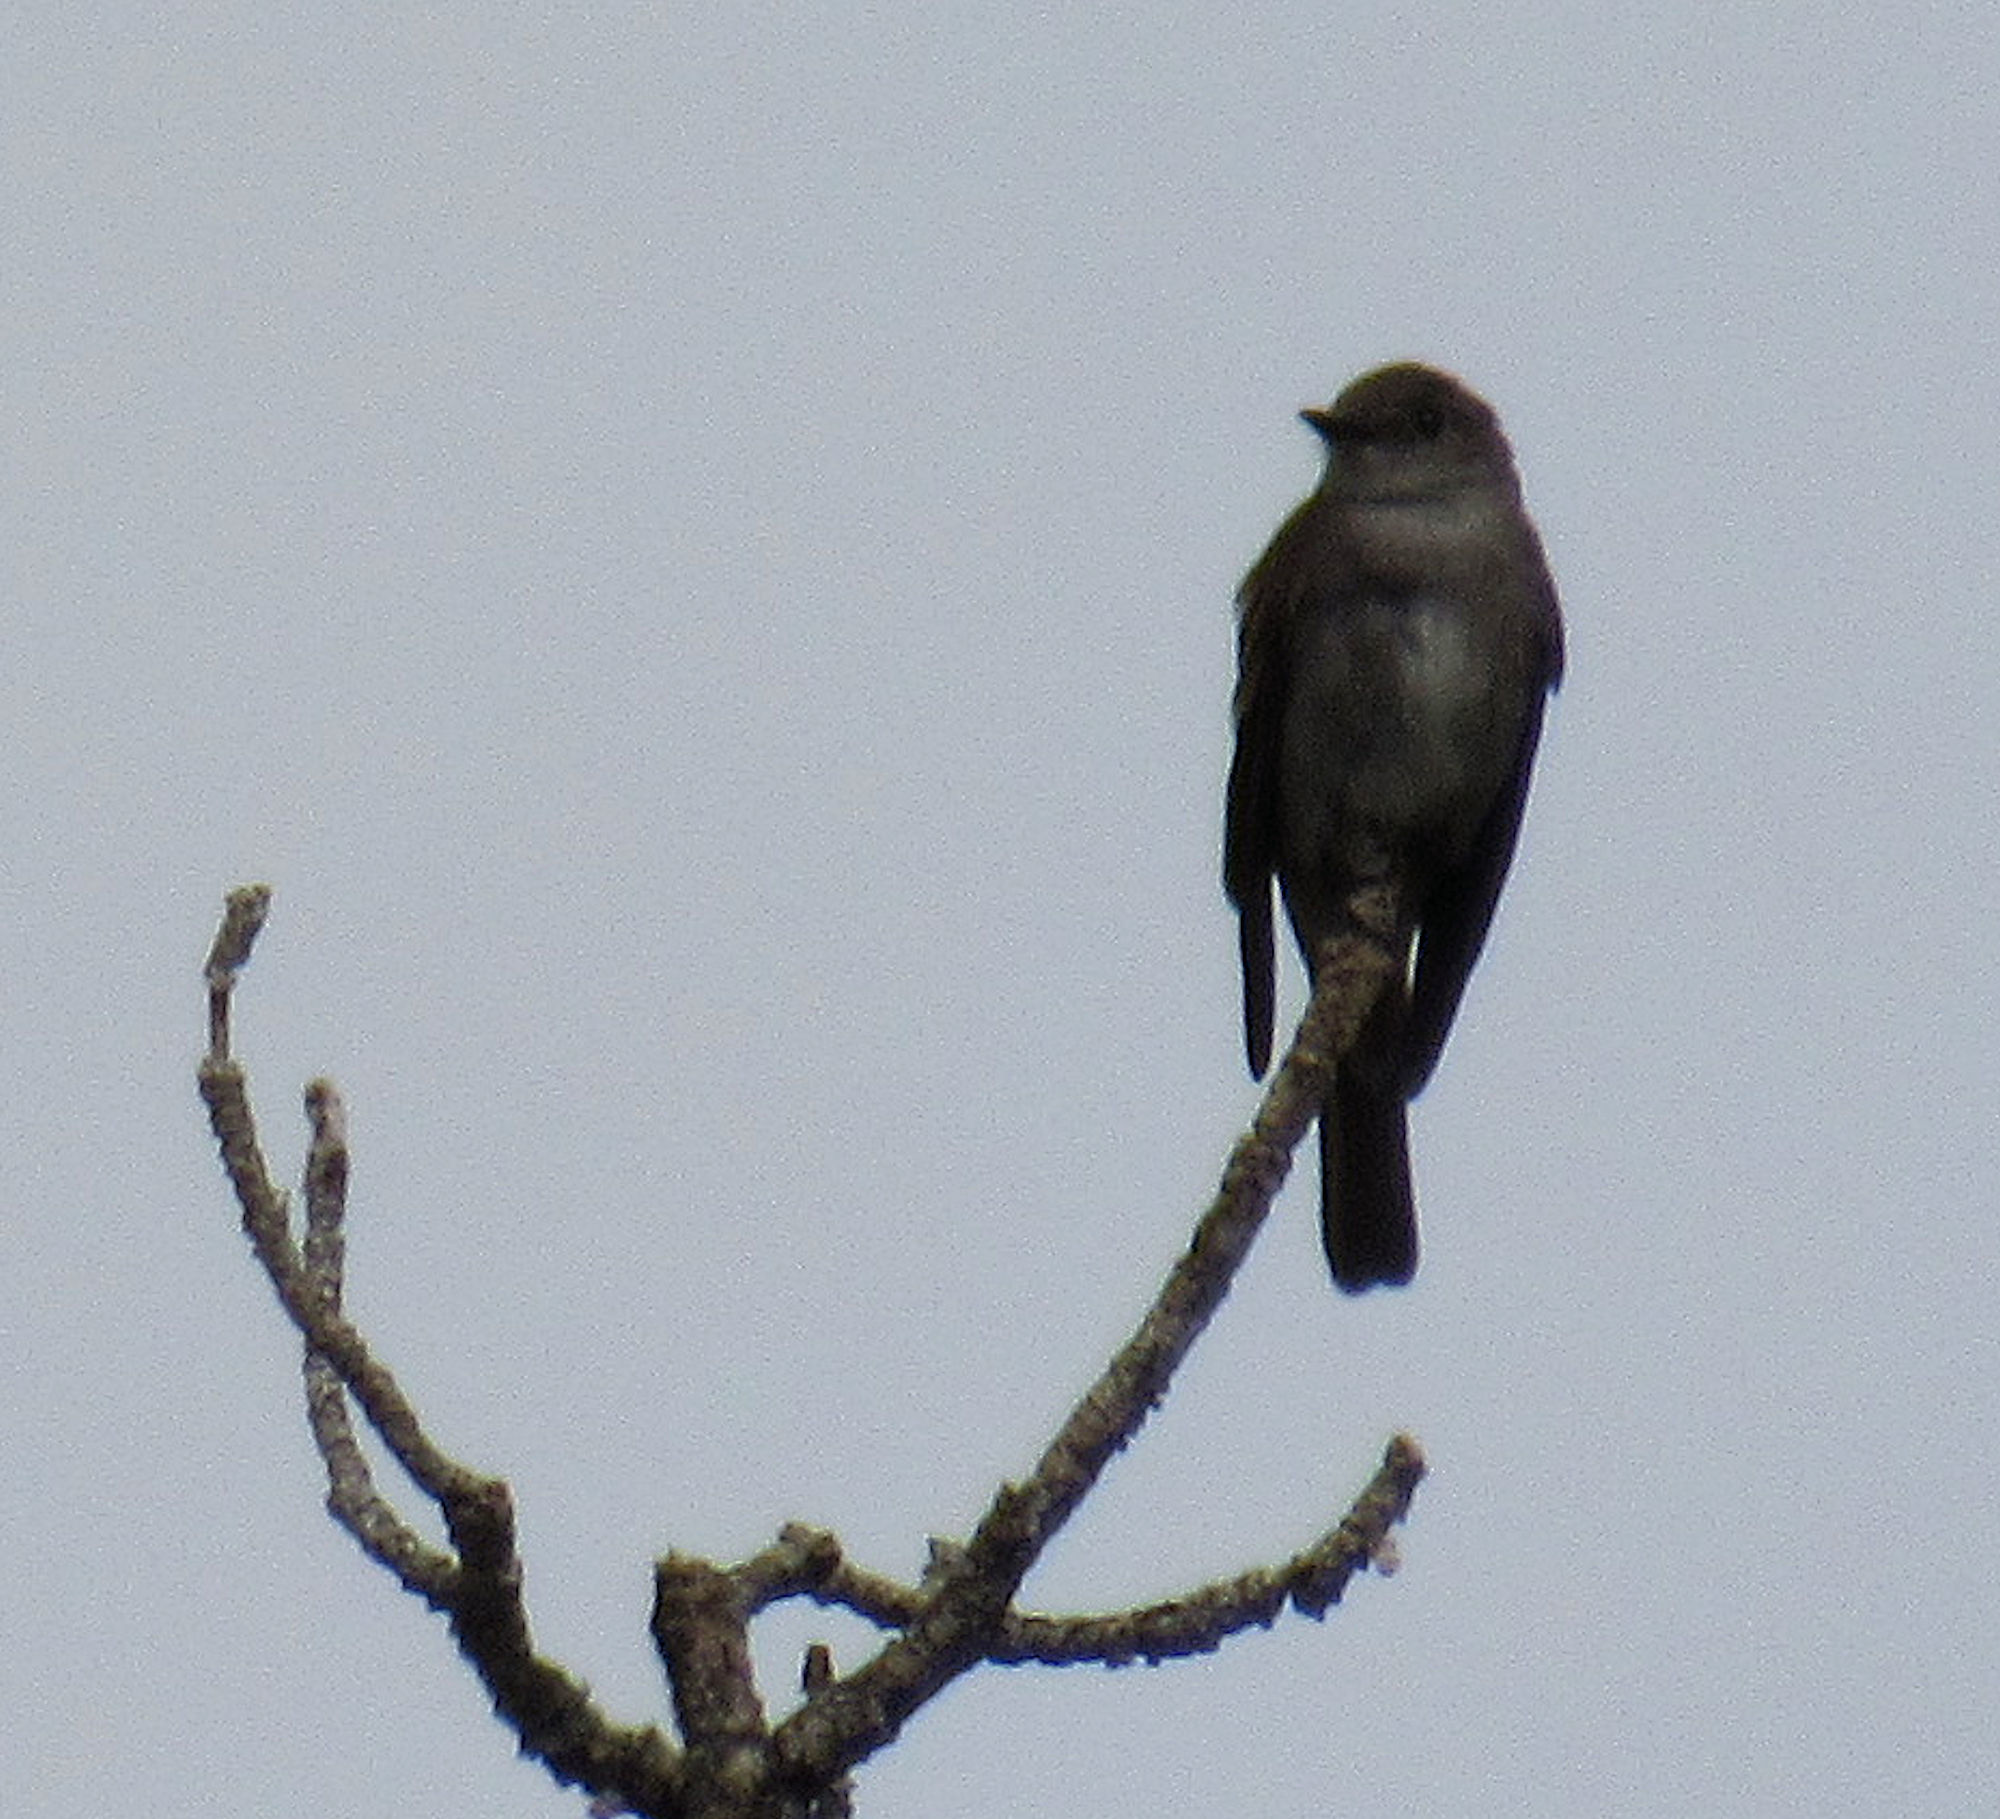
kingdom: Animalia
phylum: Chordata
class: Aves
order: Passeriformes
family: Tyrannidae
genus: Contopus
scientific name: Contopus sordidulus
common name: Western wood-pewee
